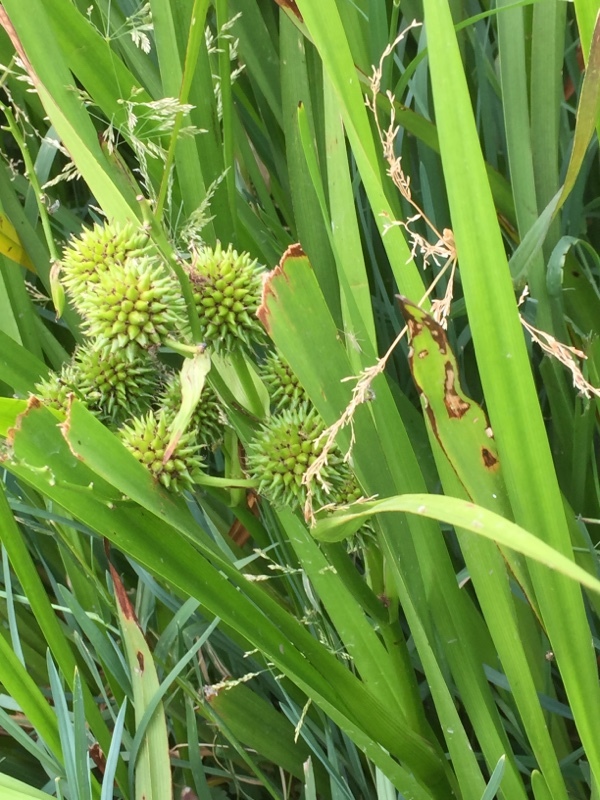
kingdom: Plantae
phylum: Tracheophyta
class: Liliopsida
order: Poales
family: Typhaceae
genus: Sparganium
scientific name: Sparganium erectum
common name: Branched bur-reed
